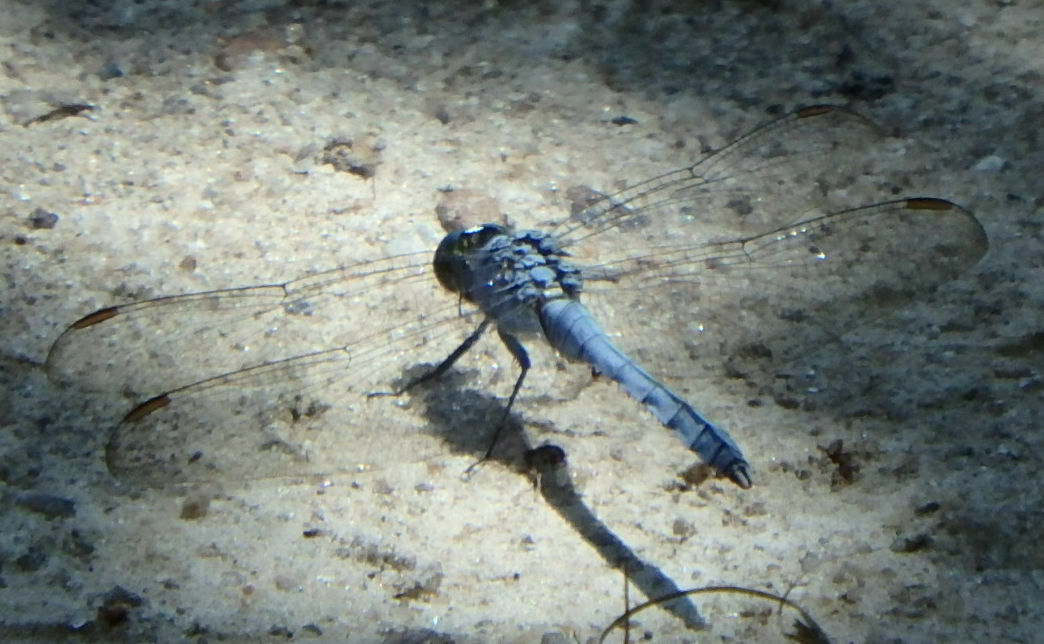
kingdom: Animalia
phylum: Arthropoda
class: Insecta
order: Odonata
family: Libellulidae
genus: Erythemis
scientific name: Erythemis simplicicollis
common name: Eastern pondhawk
